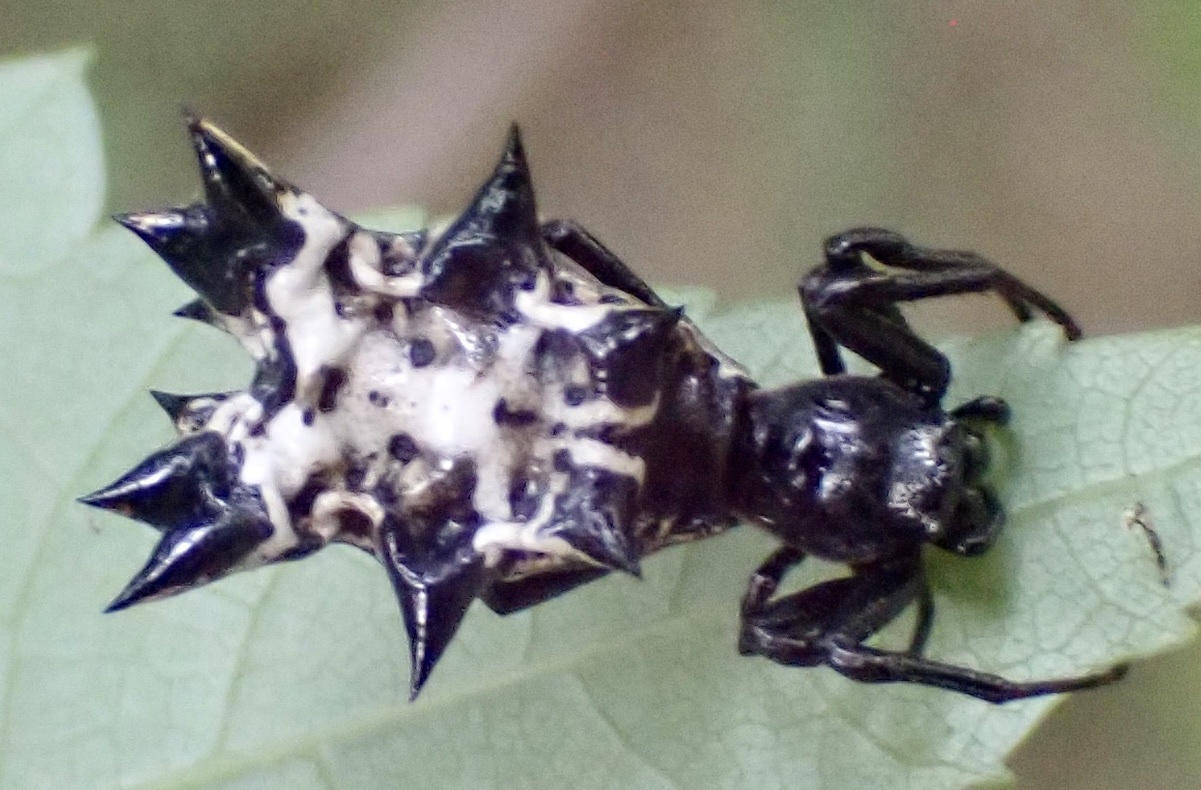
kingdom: Animalia
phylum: Arthropoda
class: Arachnida
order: Araneae
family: Araneidae
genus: Micrathena
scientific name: Micrathena gracilis
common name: Orb weavers
